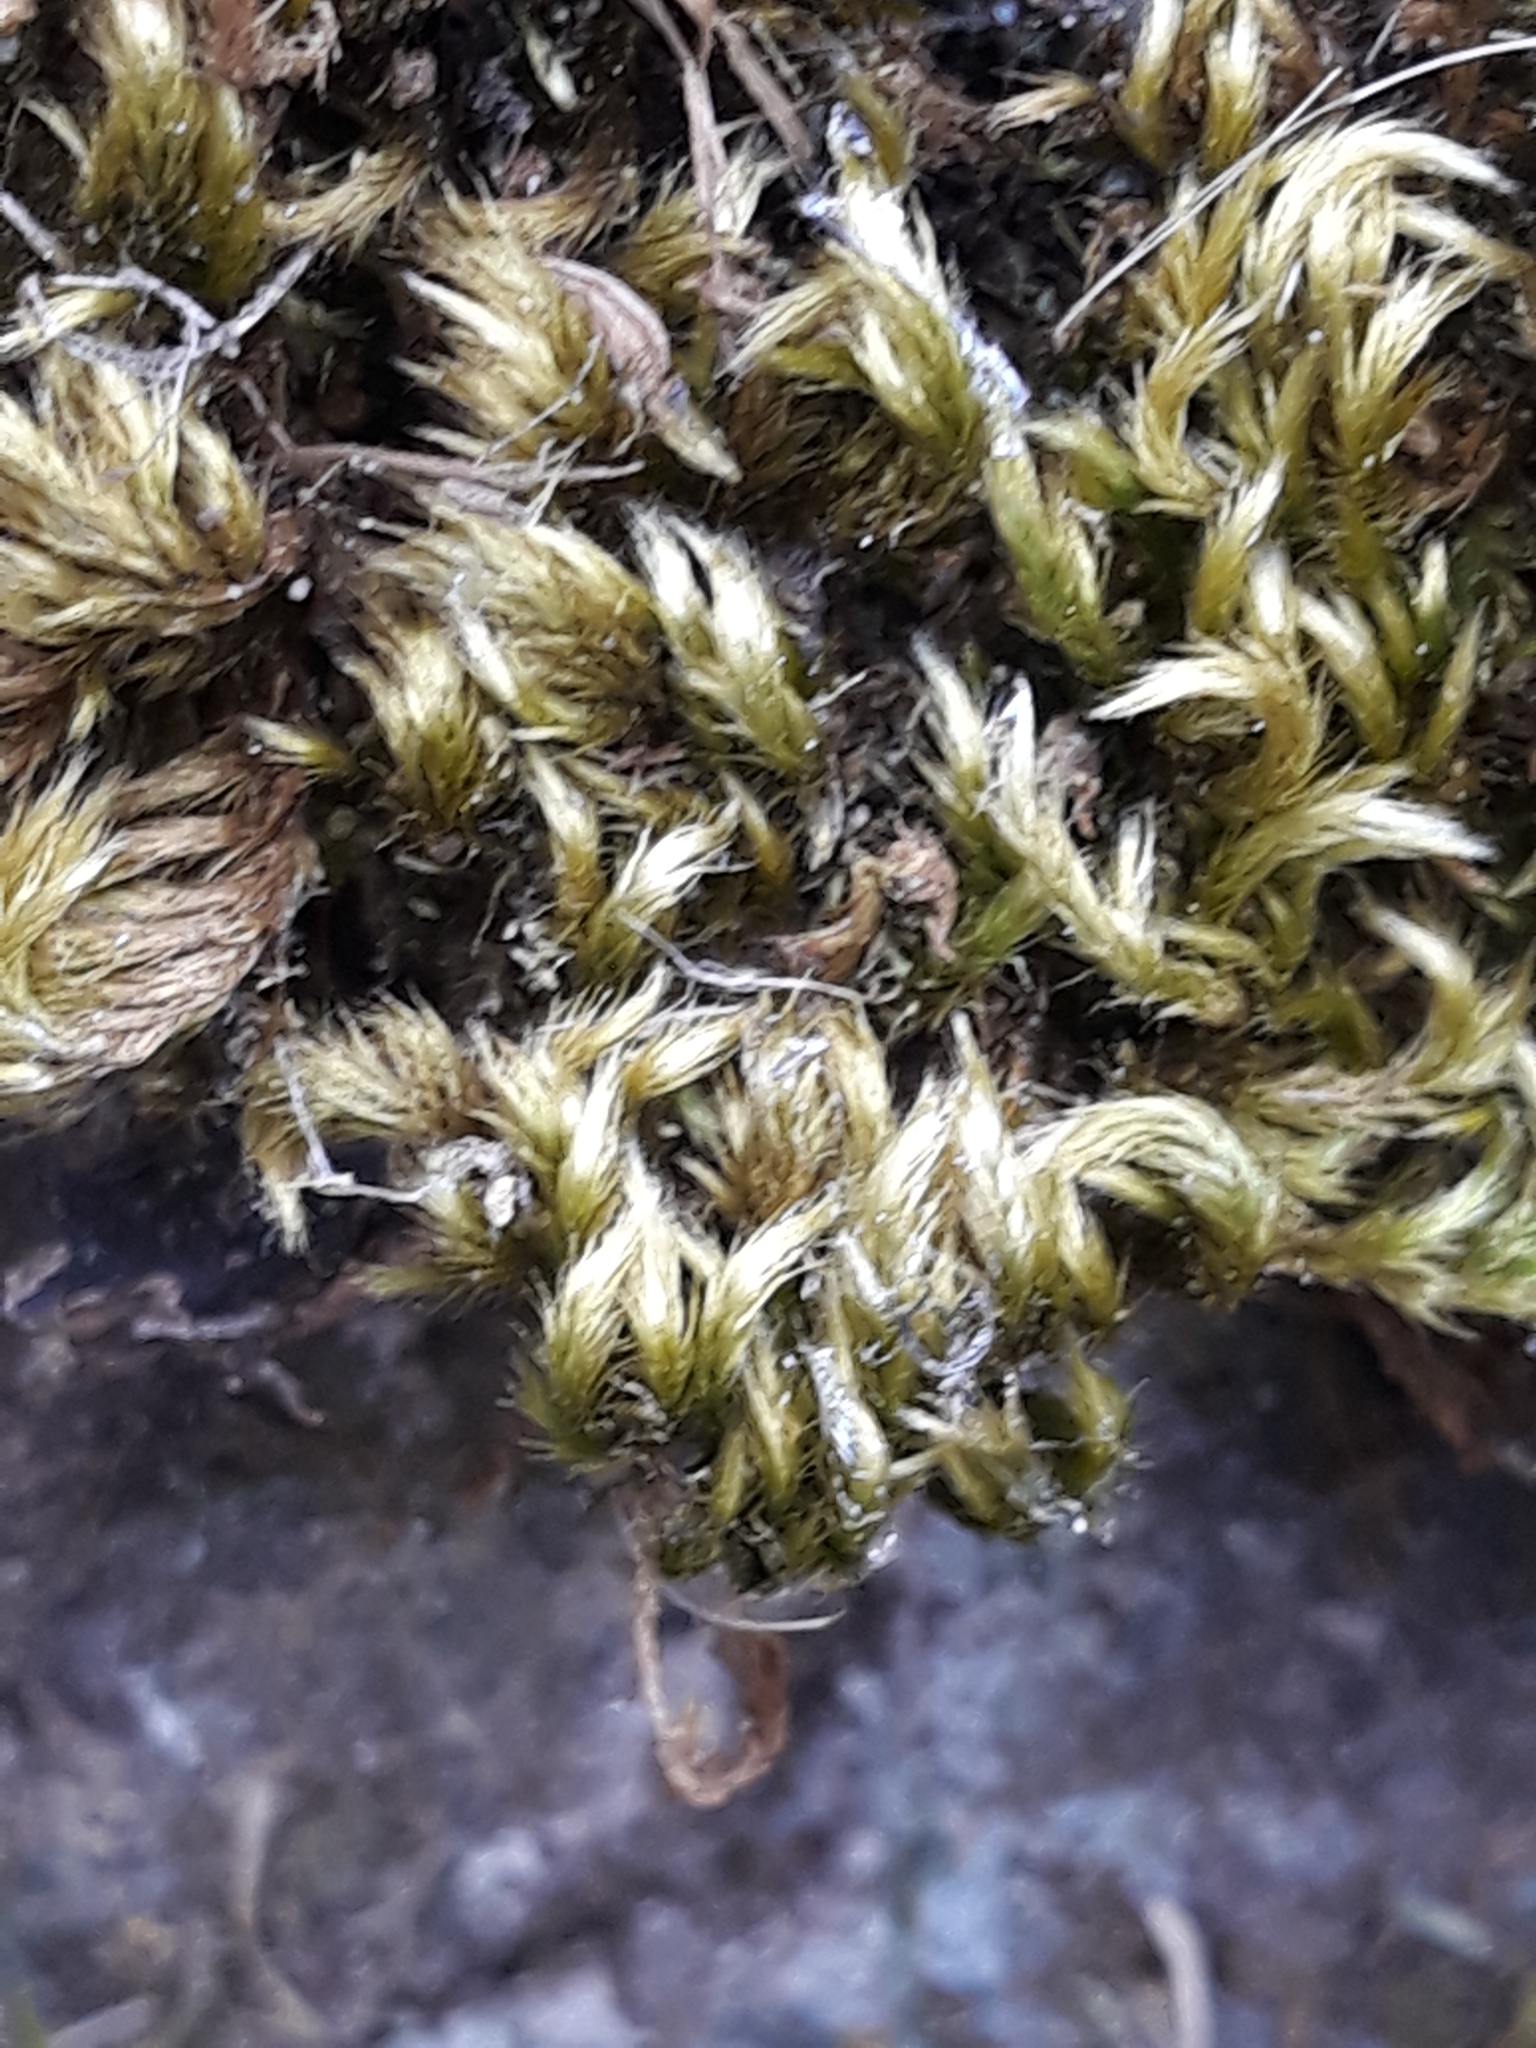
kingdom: Plantae
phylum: Bryophyta
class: Bryopsida
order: Hypnales
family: Brachytheciaceae
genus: Homalothecium
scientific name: Homalothecium sericeum
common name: Silky wall feather-moss
